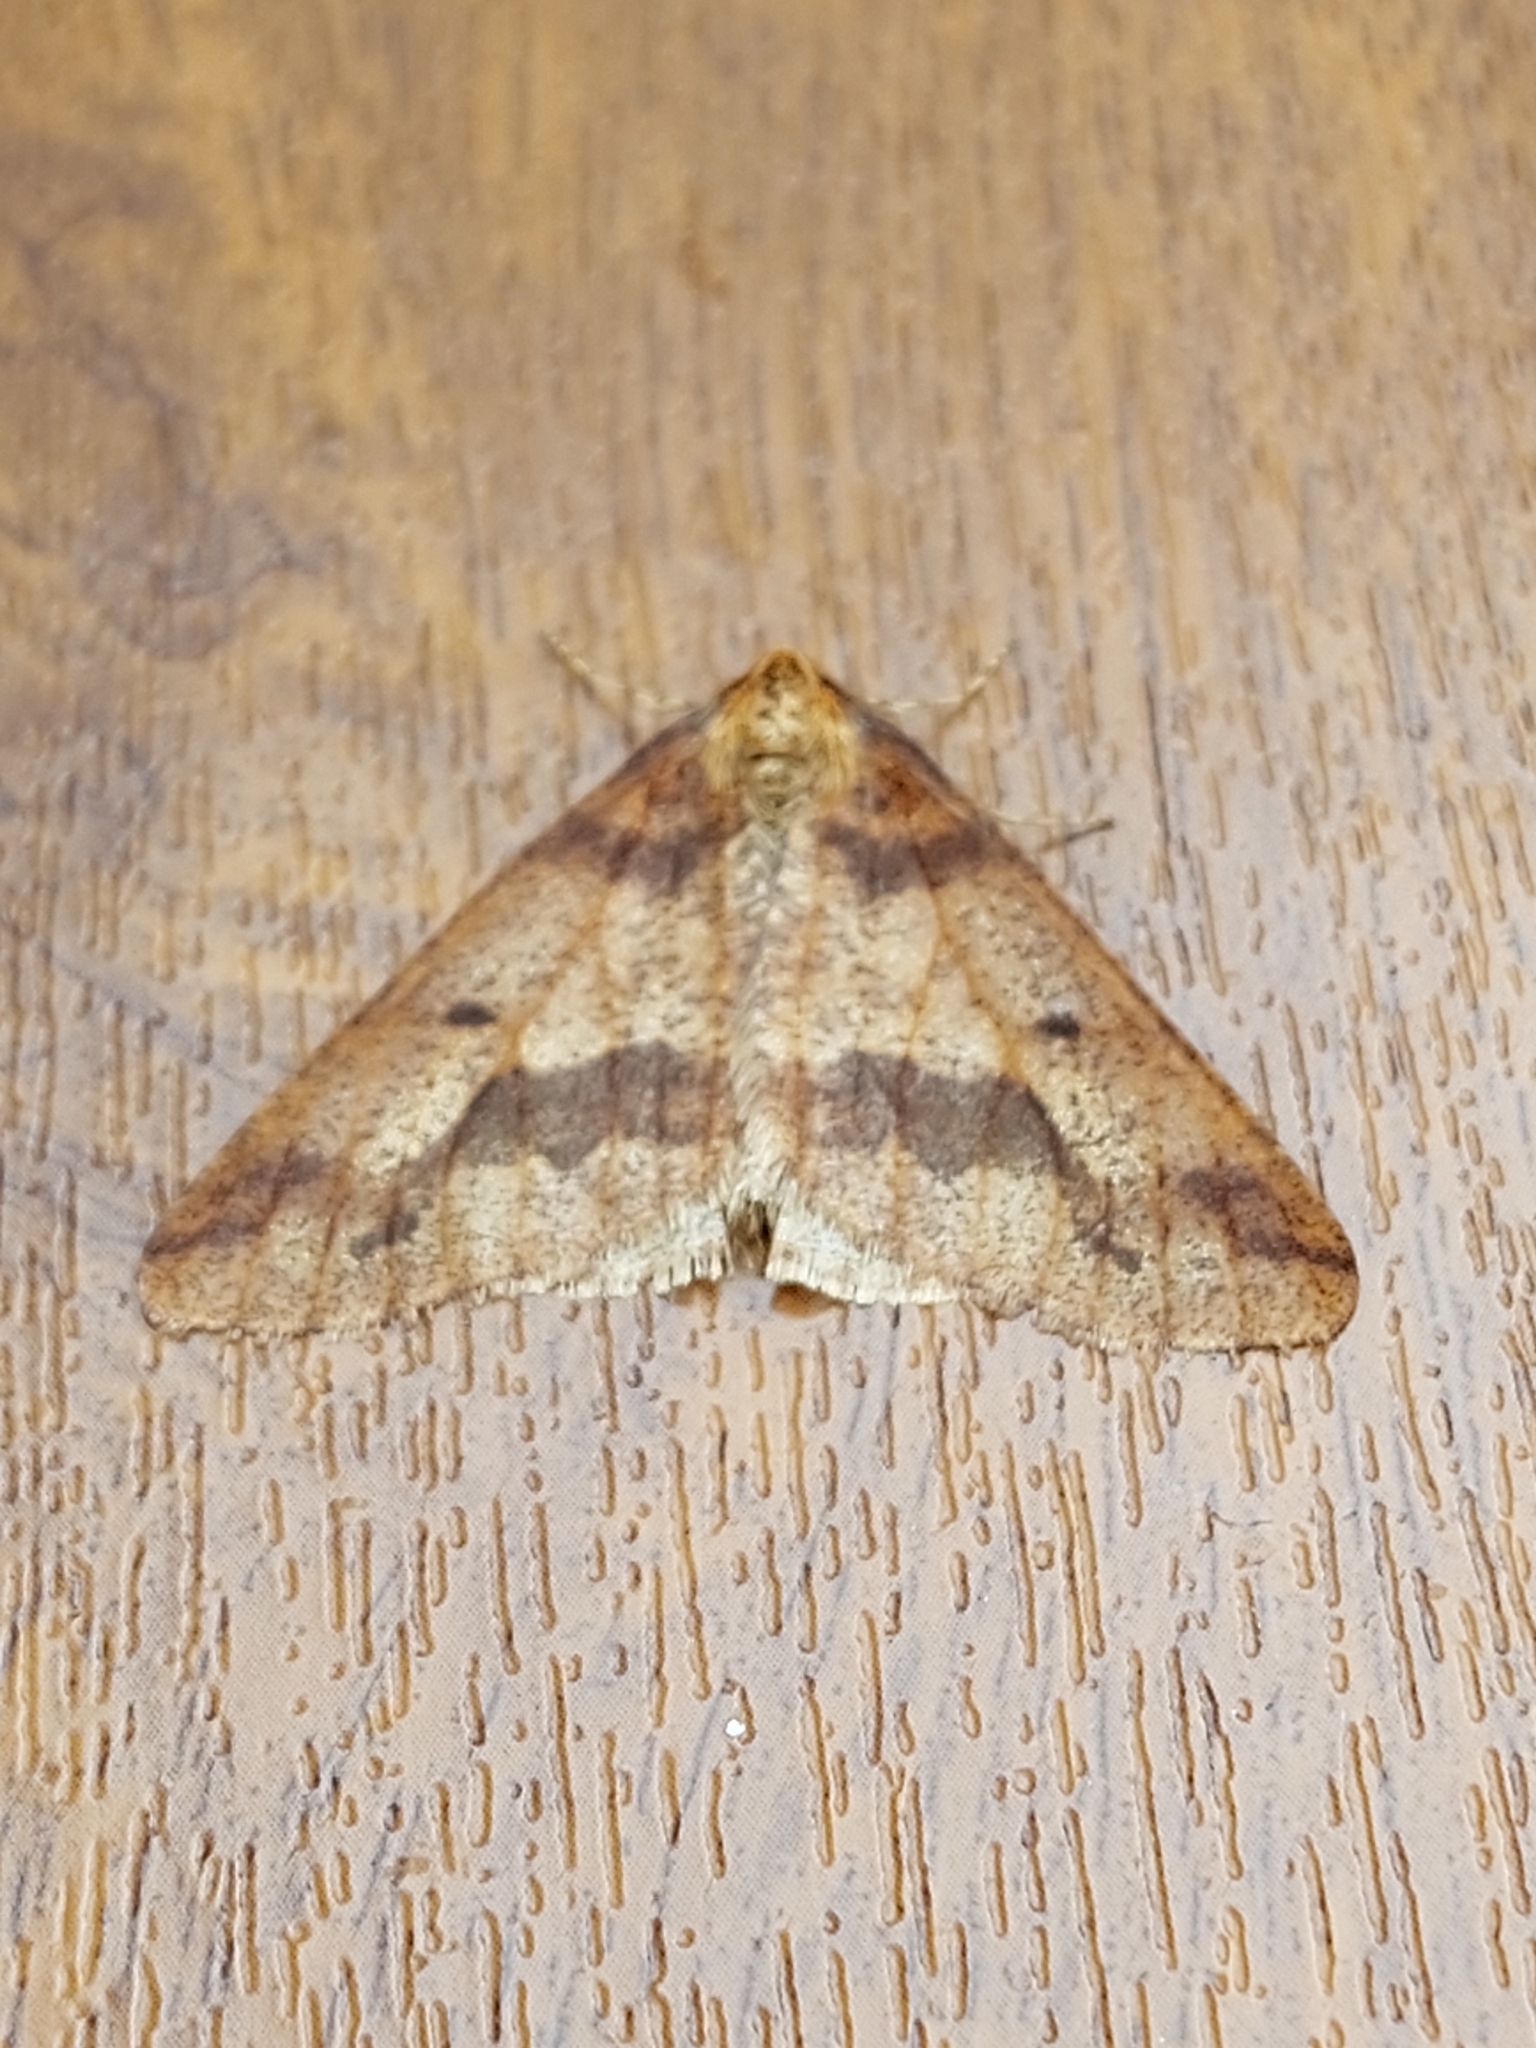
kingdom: Animalia
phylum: Arthropoda
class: Insecta
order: Lepidoptera
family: Geometridae
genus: Erannis
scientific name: Erannis defoliaria
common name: Mottled umber
